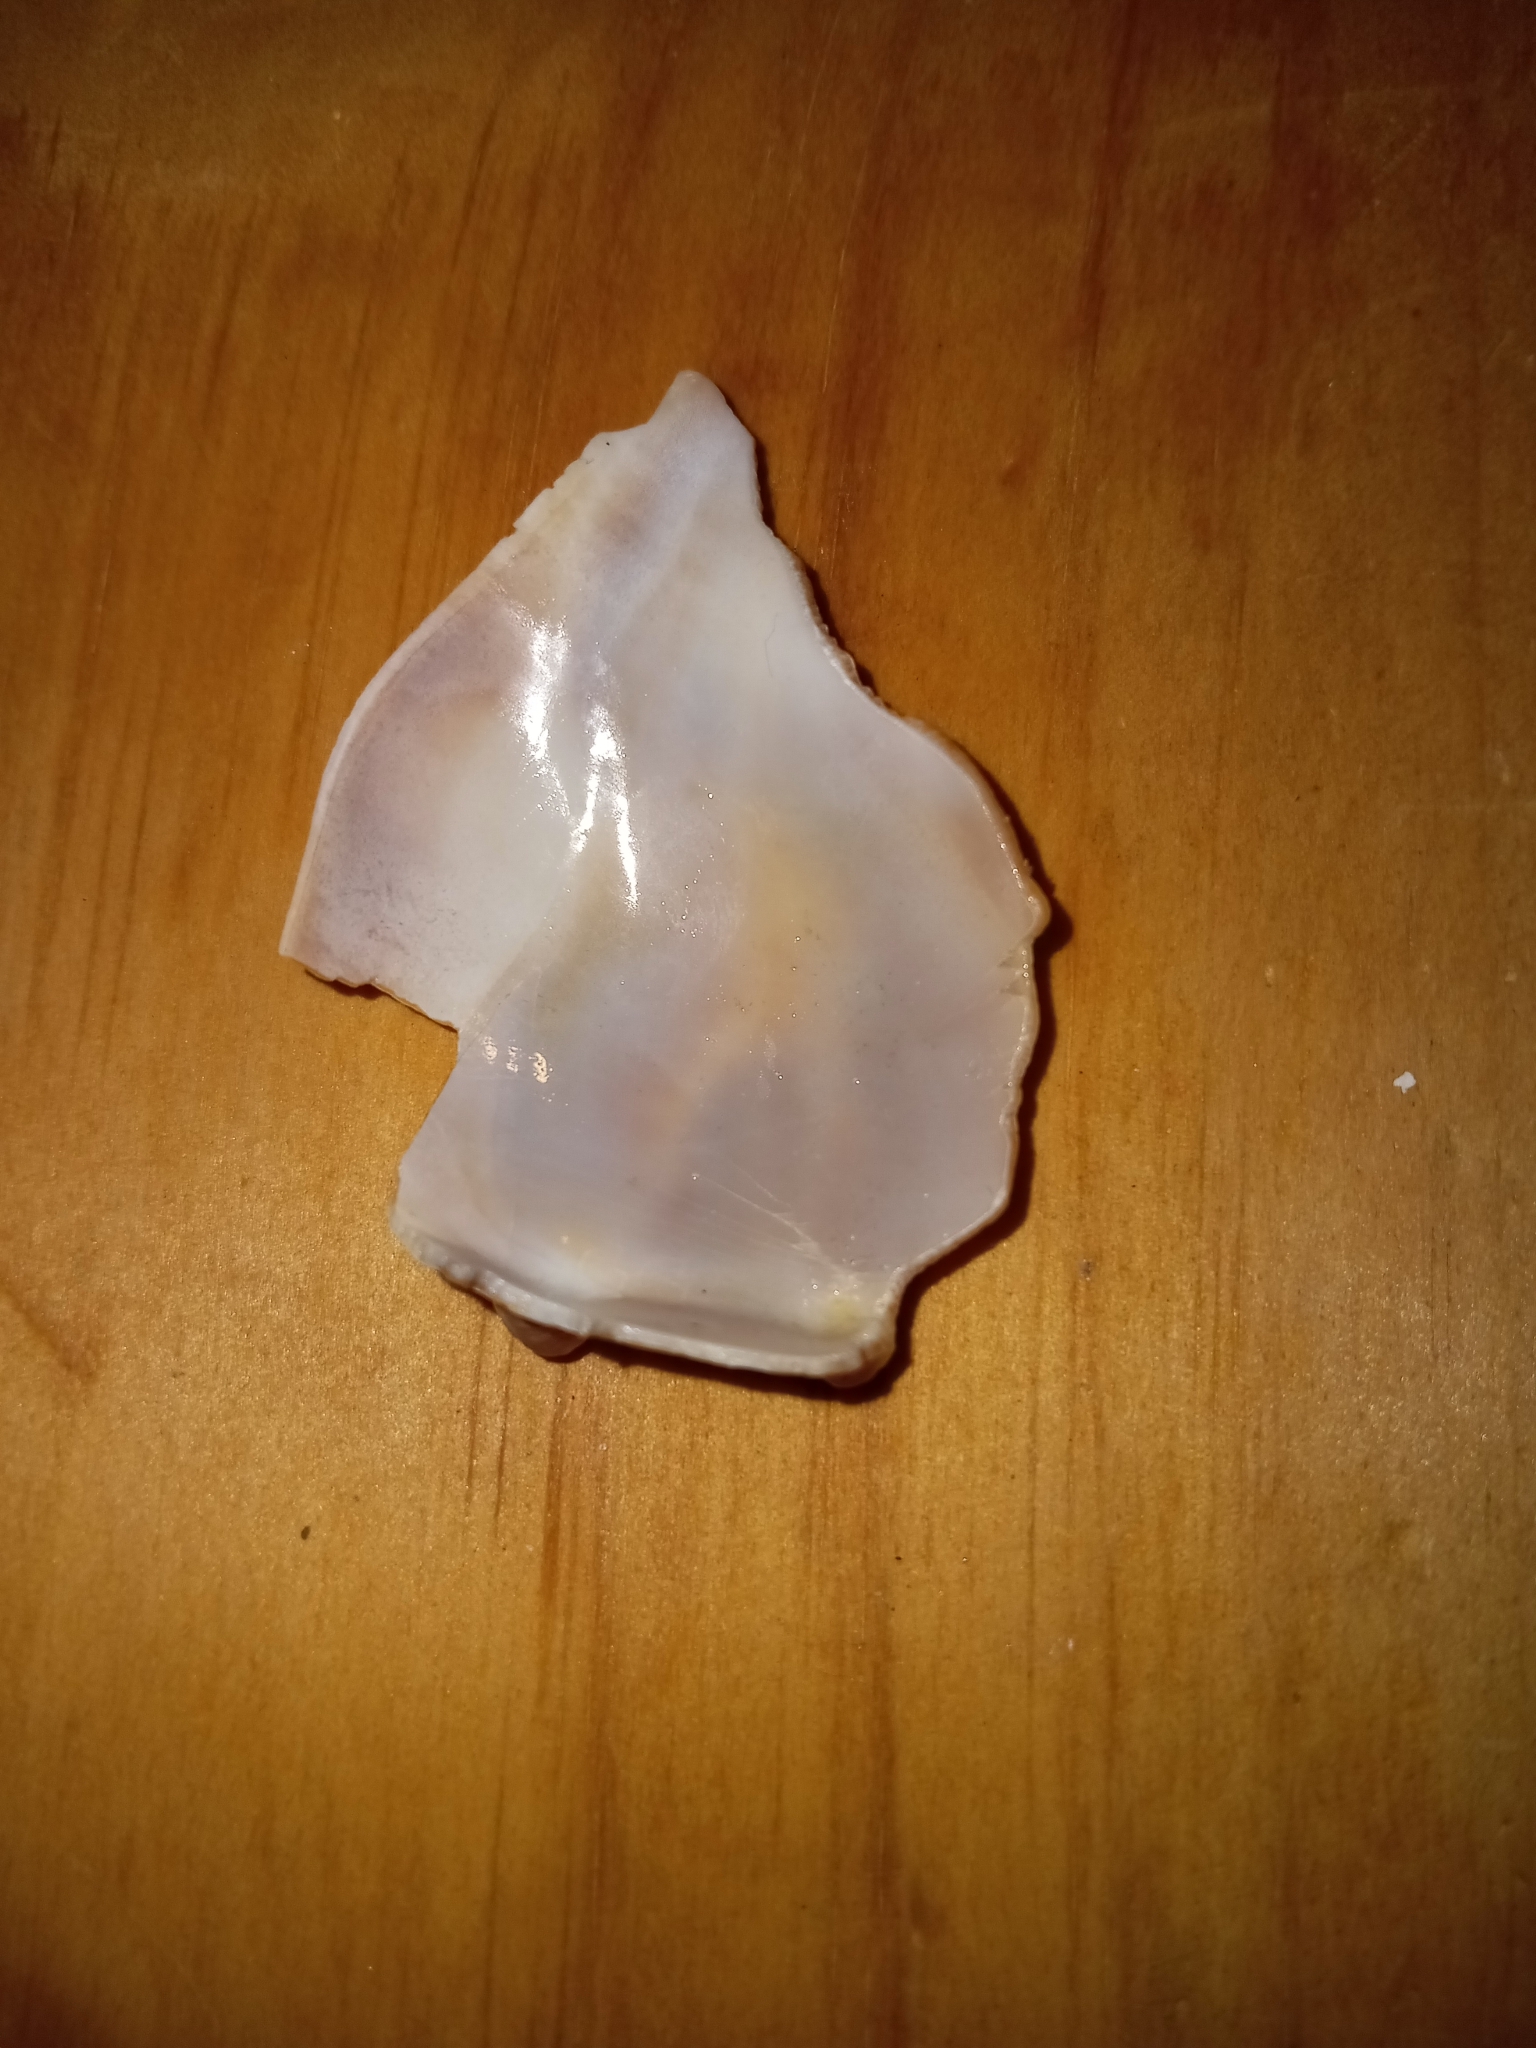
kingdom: Animalia
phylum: Mollusca
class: Gastropoda
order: Neogastropoda
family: Busyconidae
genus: Busycon
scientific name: Busycon carica
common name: Knobbed whelk
